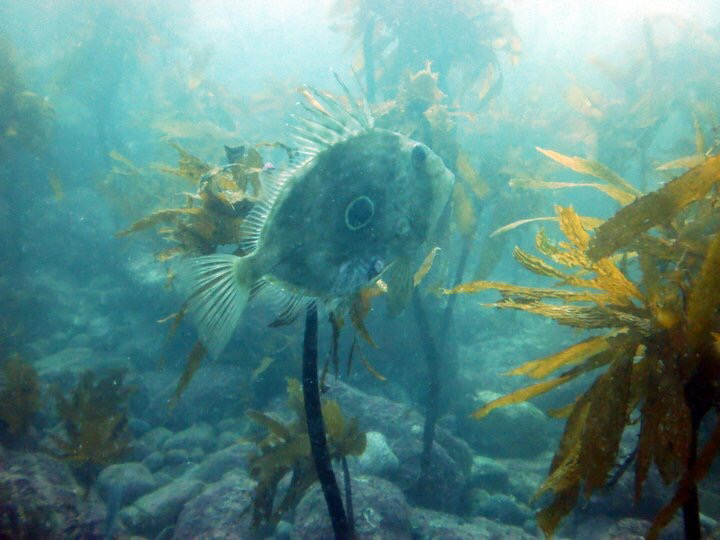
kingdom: Animalia
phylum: Chordata
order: Zeiformes
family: Zeidae
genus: Zeus
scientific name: Zeus faber
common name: John dory
